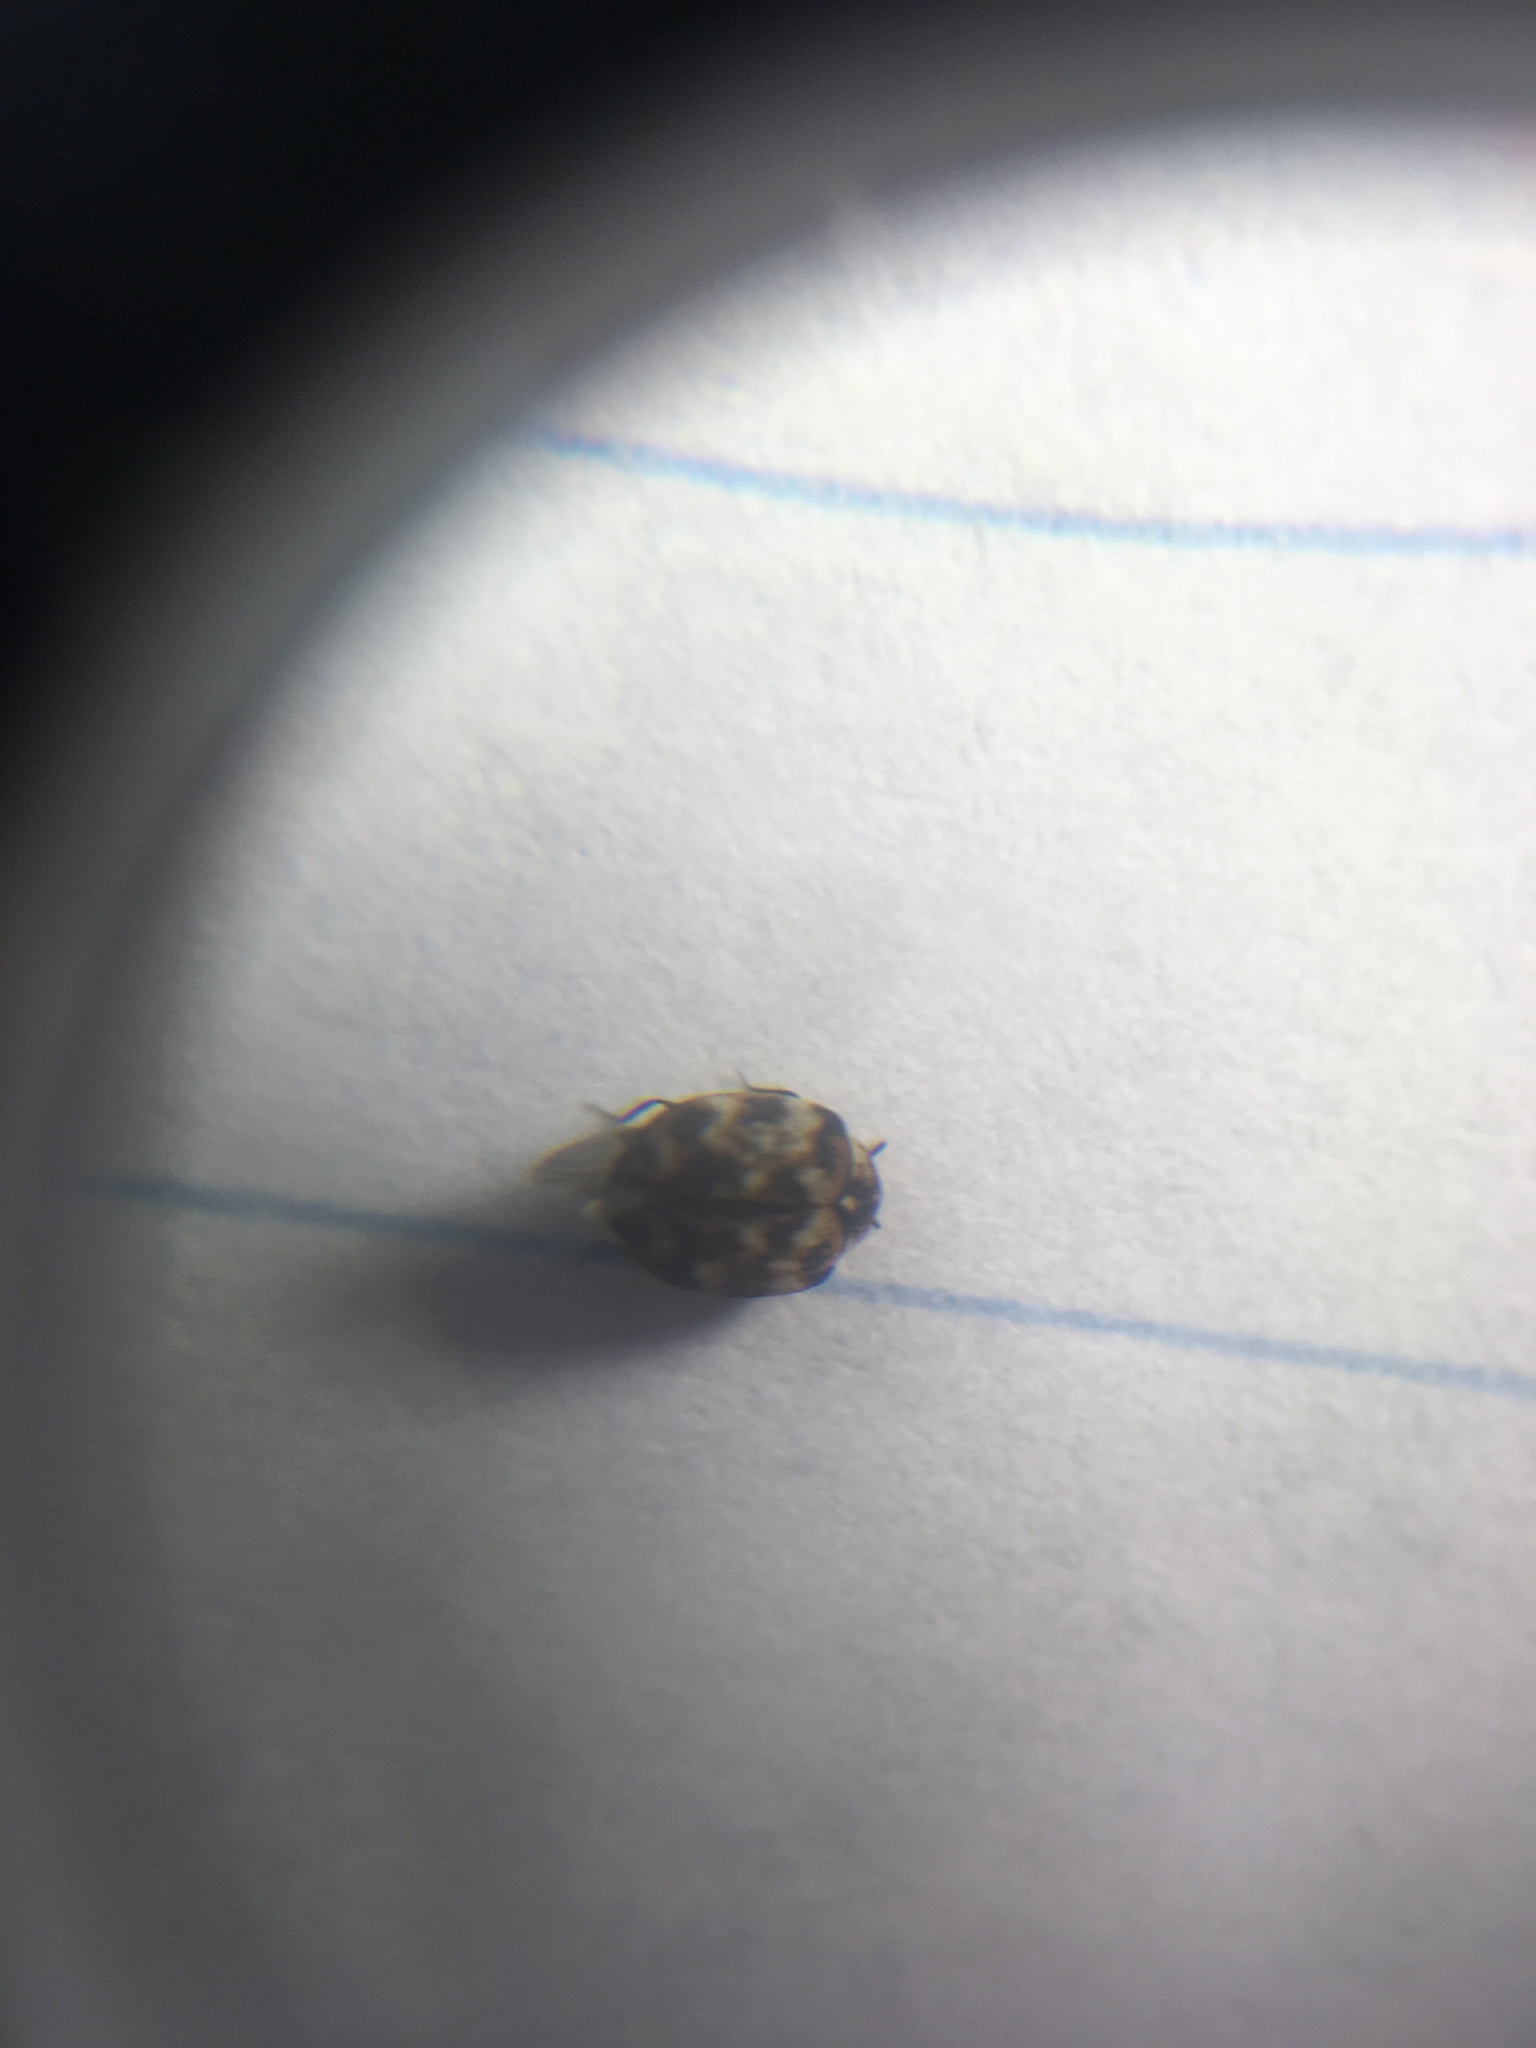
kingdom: Animalia
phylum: Arthropoda
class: Insecta
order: Coleoptera
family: Dermestidae
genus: Anthrenus
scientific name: Anthrenus verbasci
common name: Varied carpet beetle
